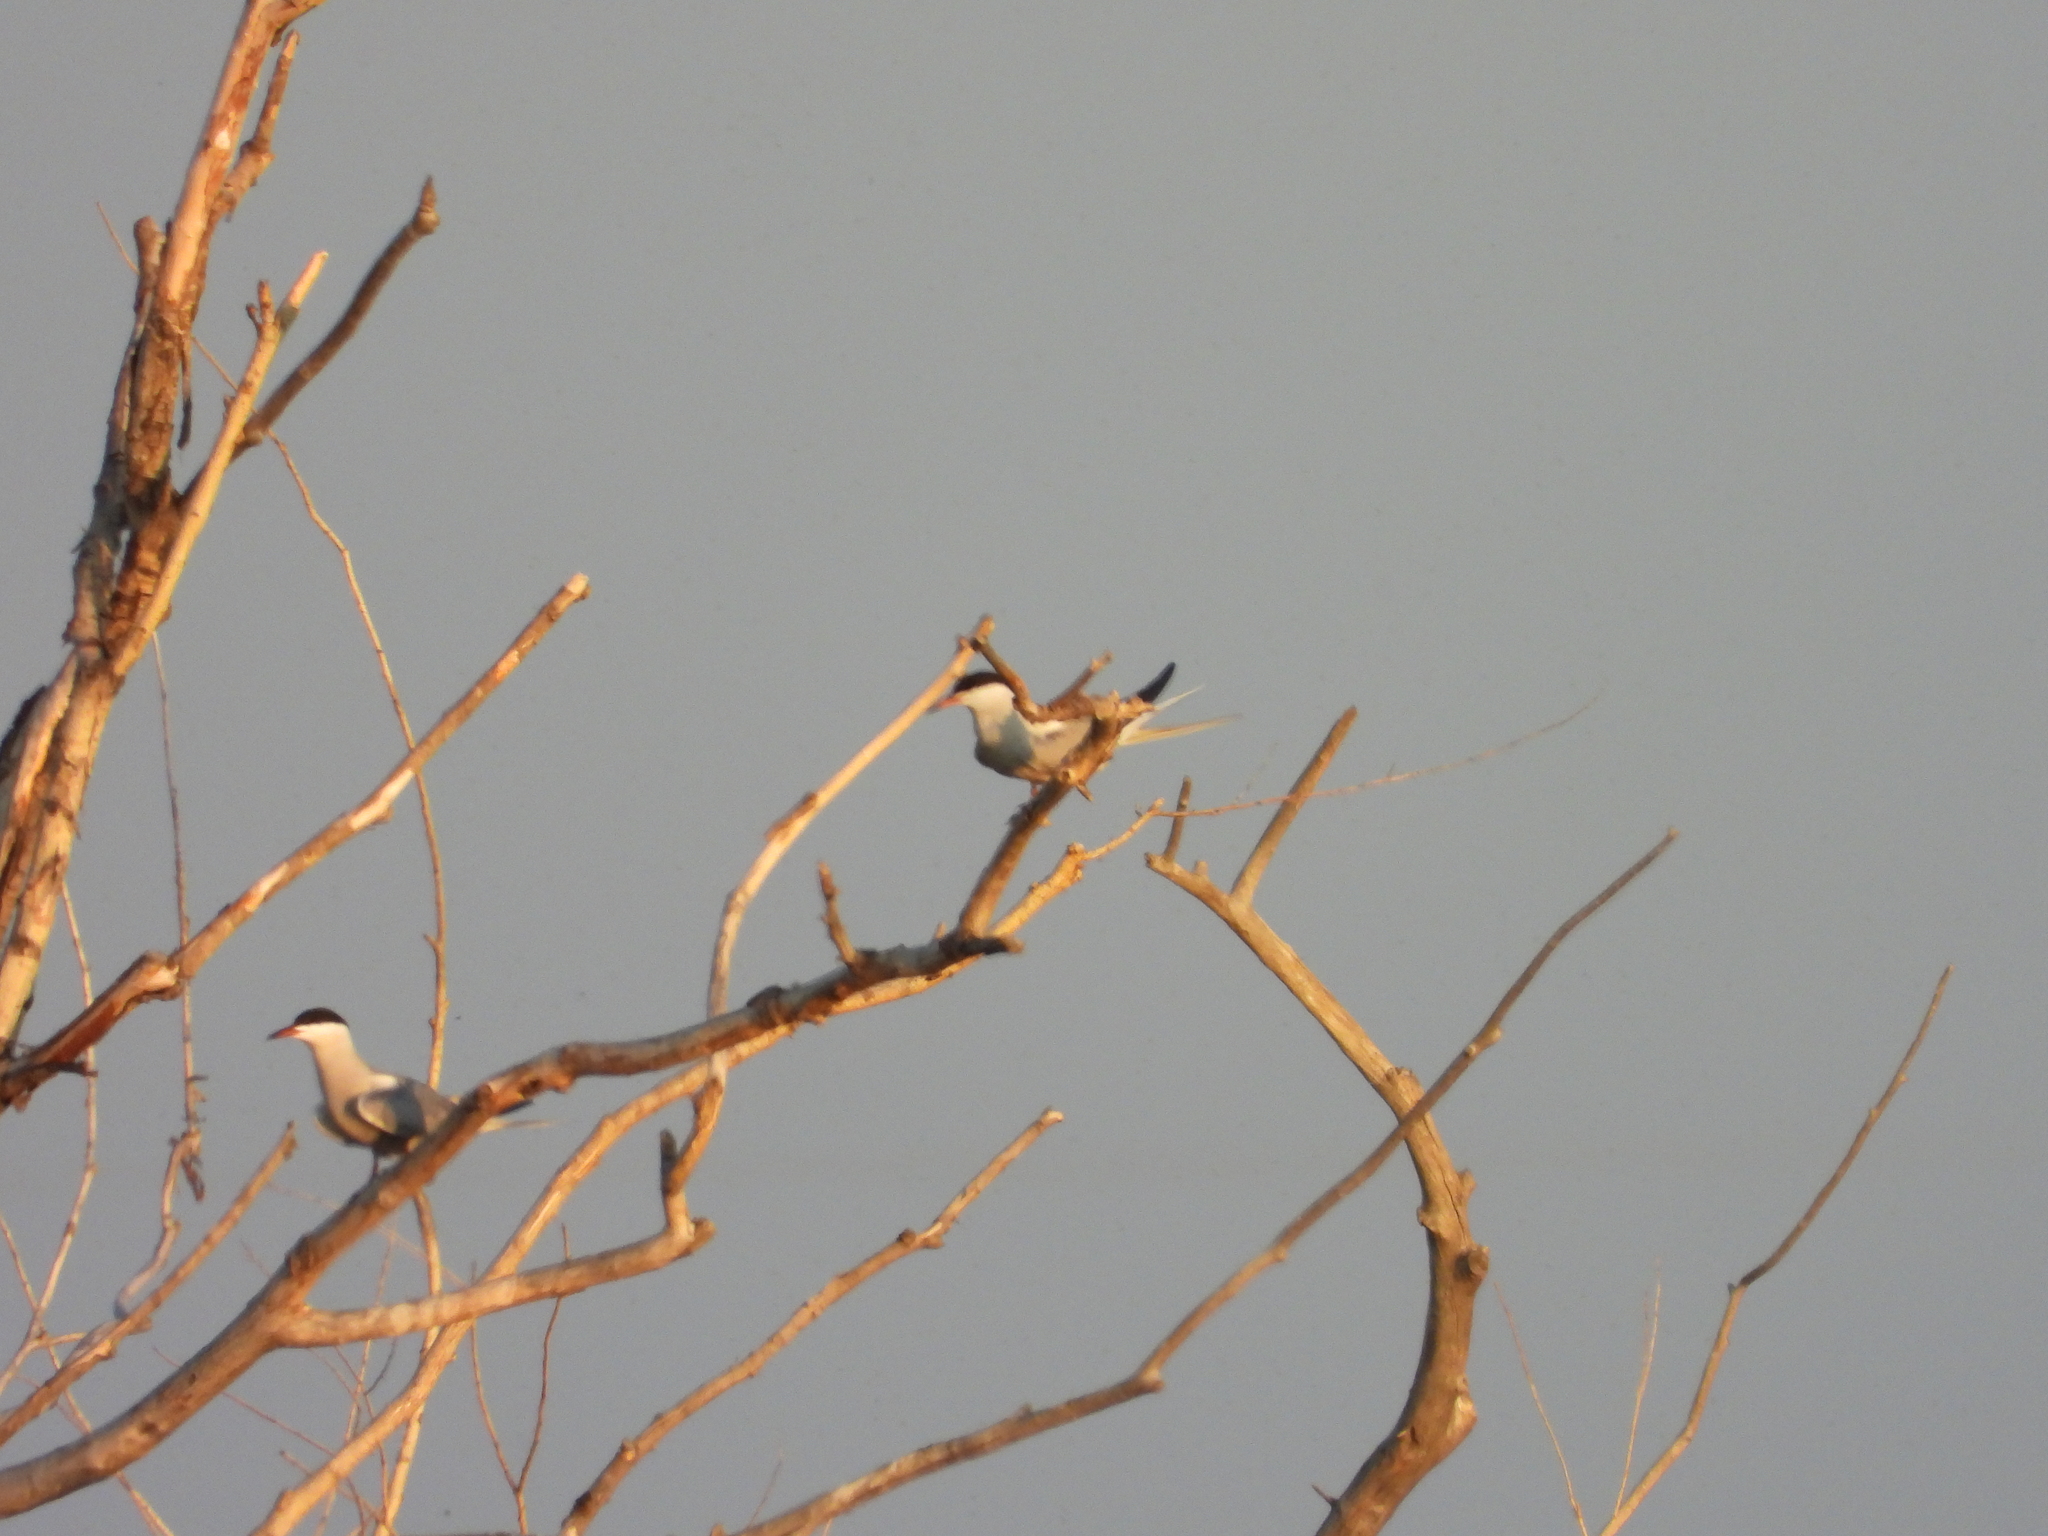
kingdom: Animalia
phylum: Chordata
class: Aves
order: Charadriiformes
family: Laridae
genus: Sterna
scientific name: Sterna hirundo
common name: Common tern
